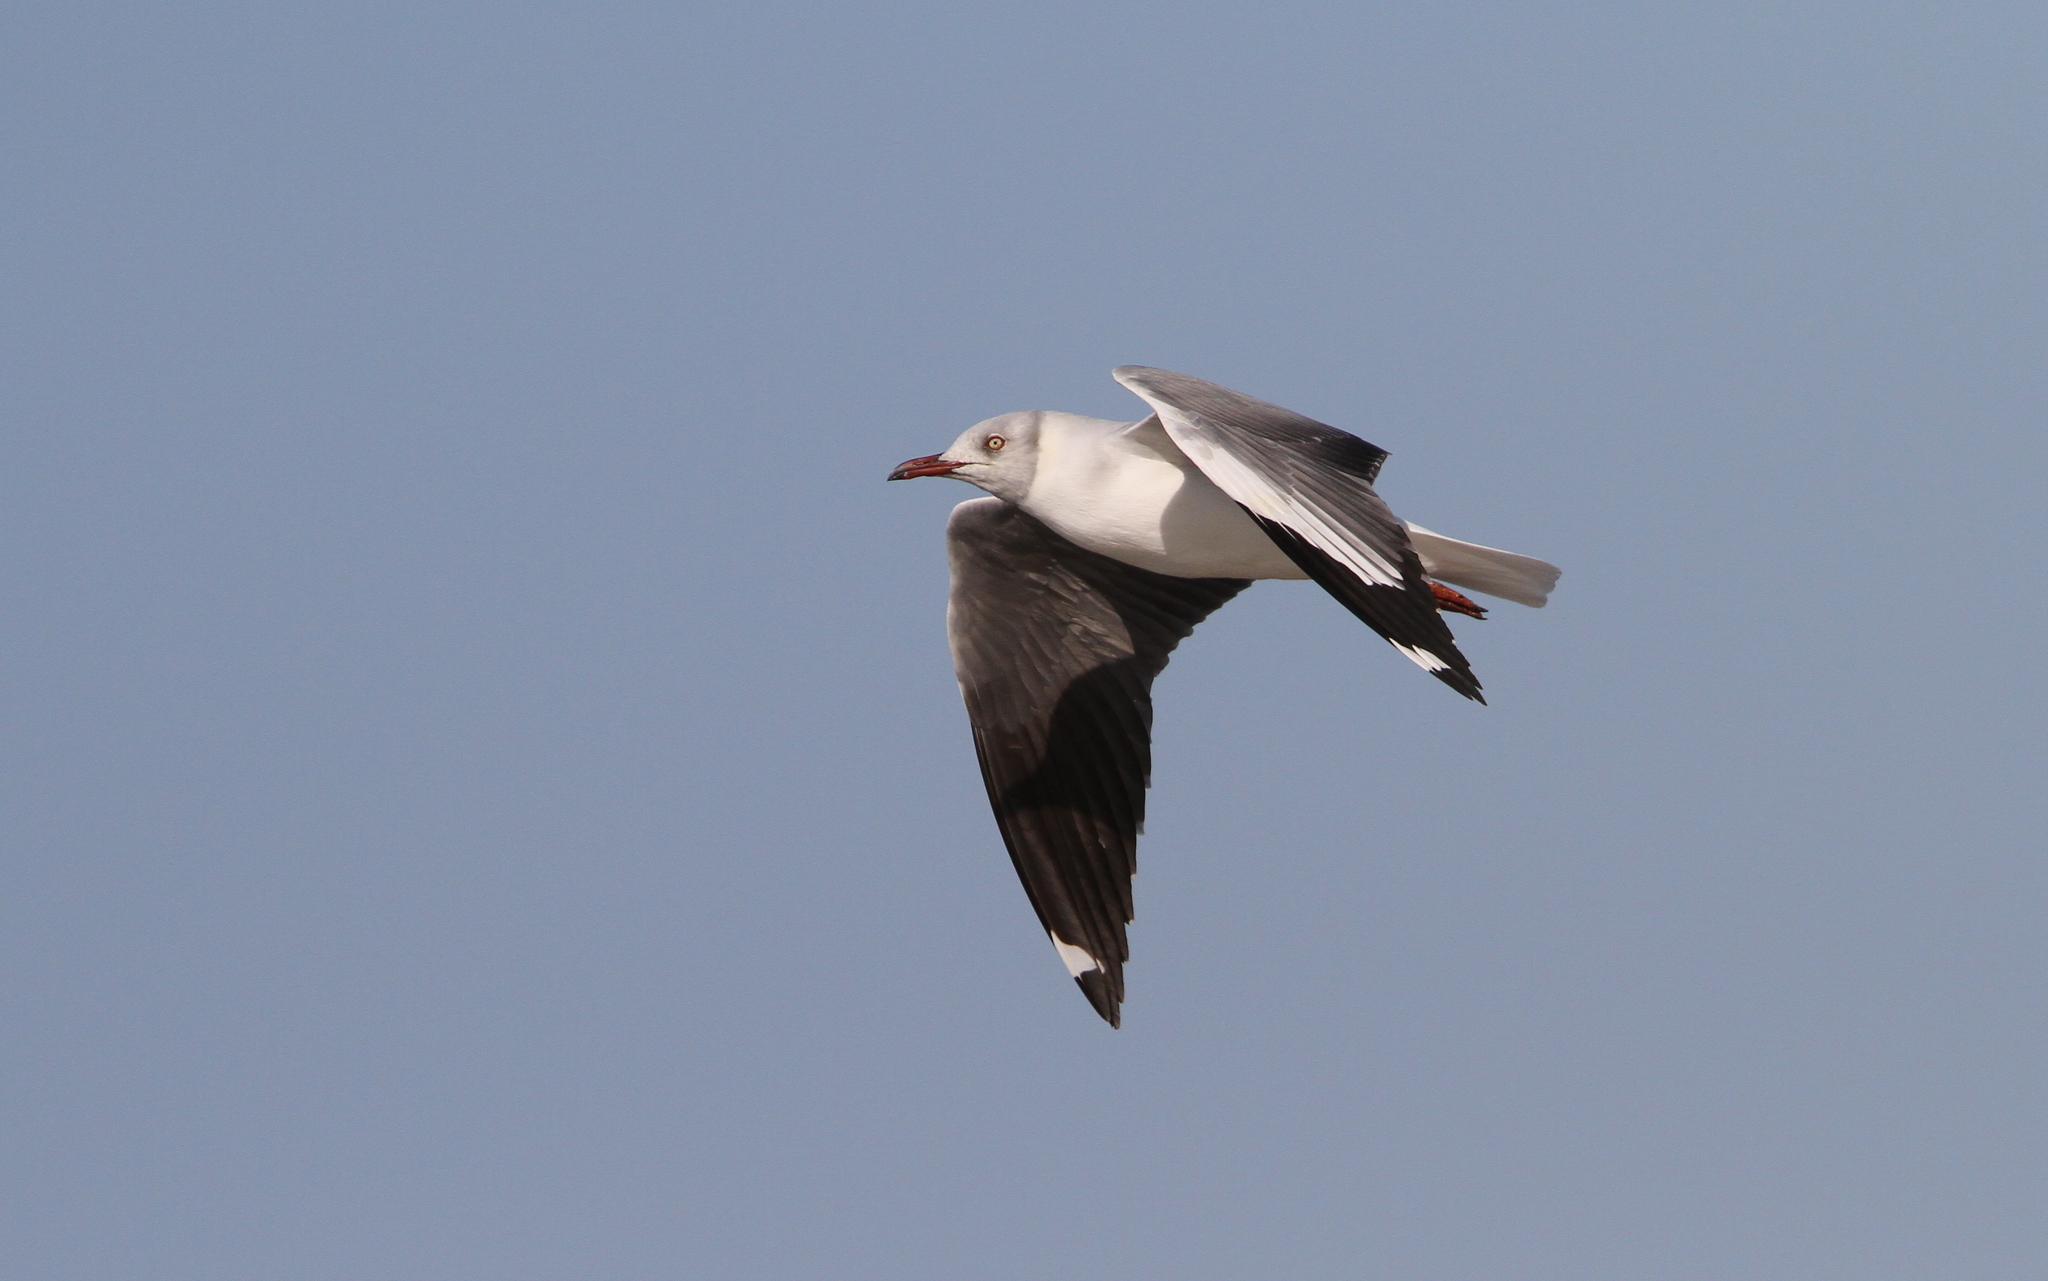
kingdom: Animalia
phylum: Chordata
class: Aves
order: Charadriiformes
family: Laridae
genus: Chroicocephalus
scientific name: Chroicocephalus cirrocephalus
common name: Grey-headed gull
